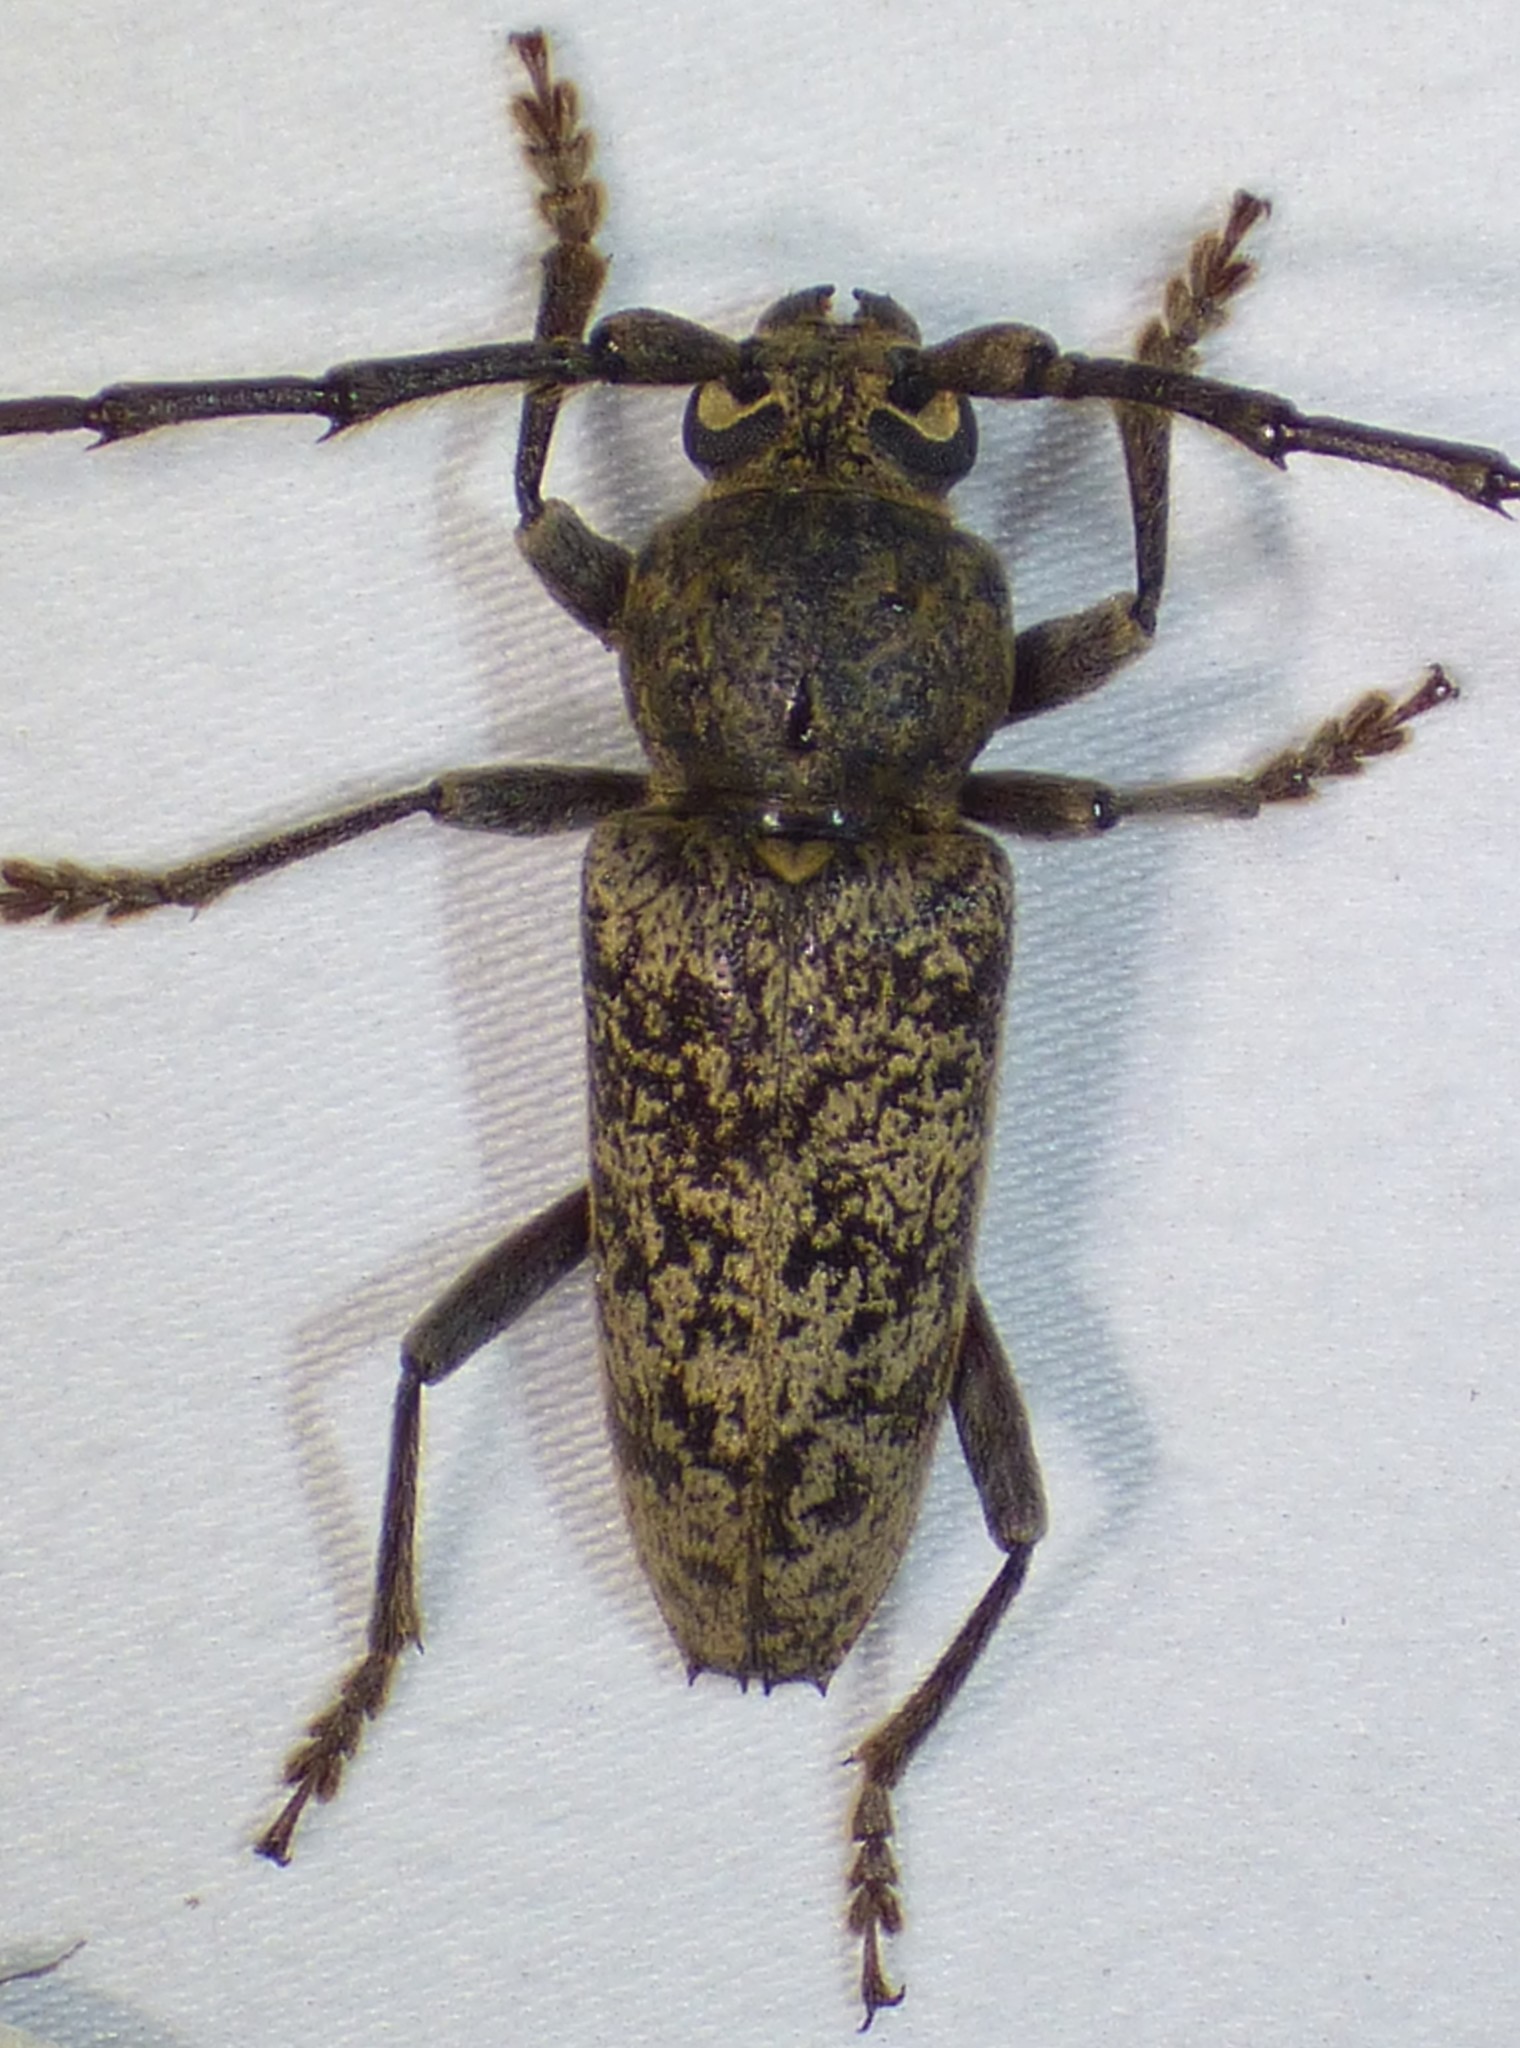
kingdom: Animalia
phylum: Arthropoda
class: Insecta
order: Coleoptera
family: Cerambycidae
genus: Enaphalodes
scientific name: Enaphalodes atomarius
